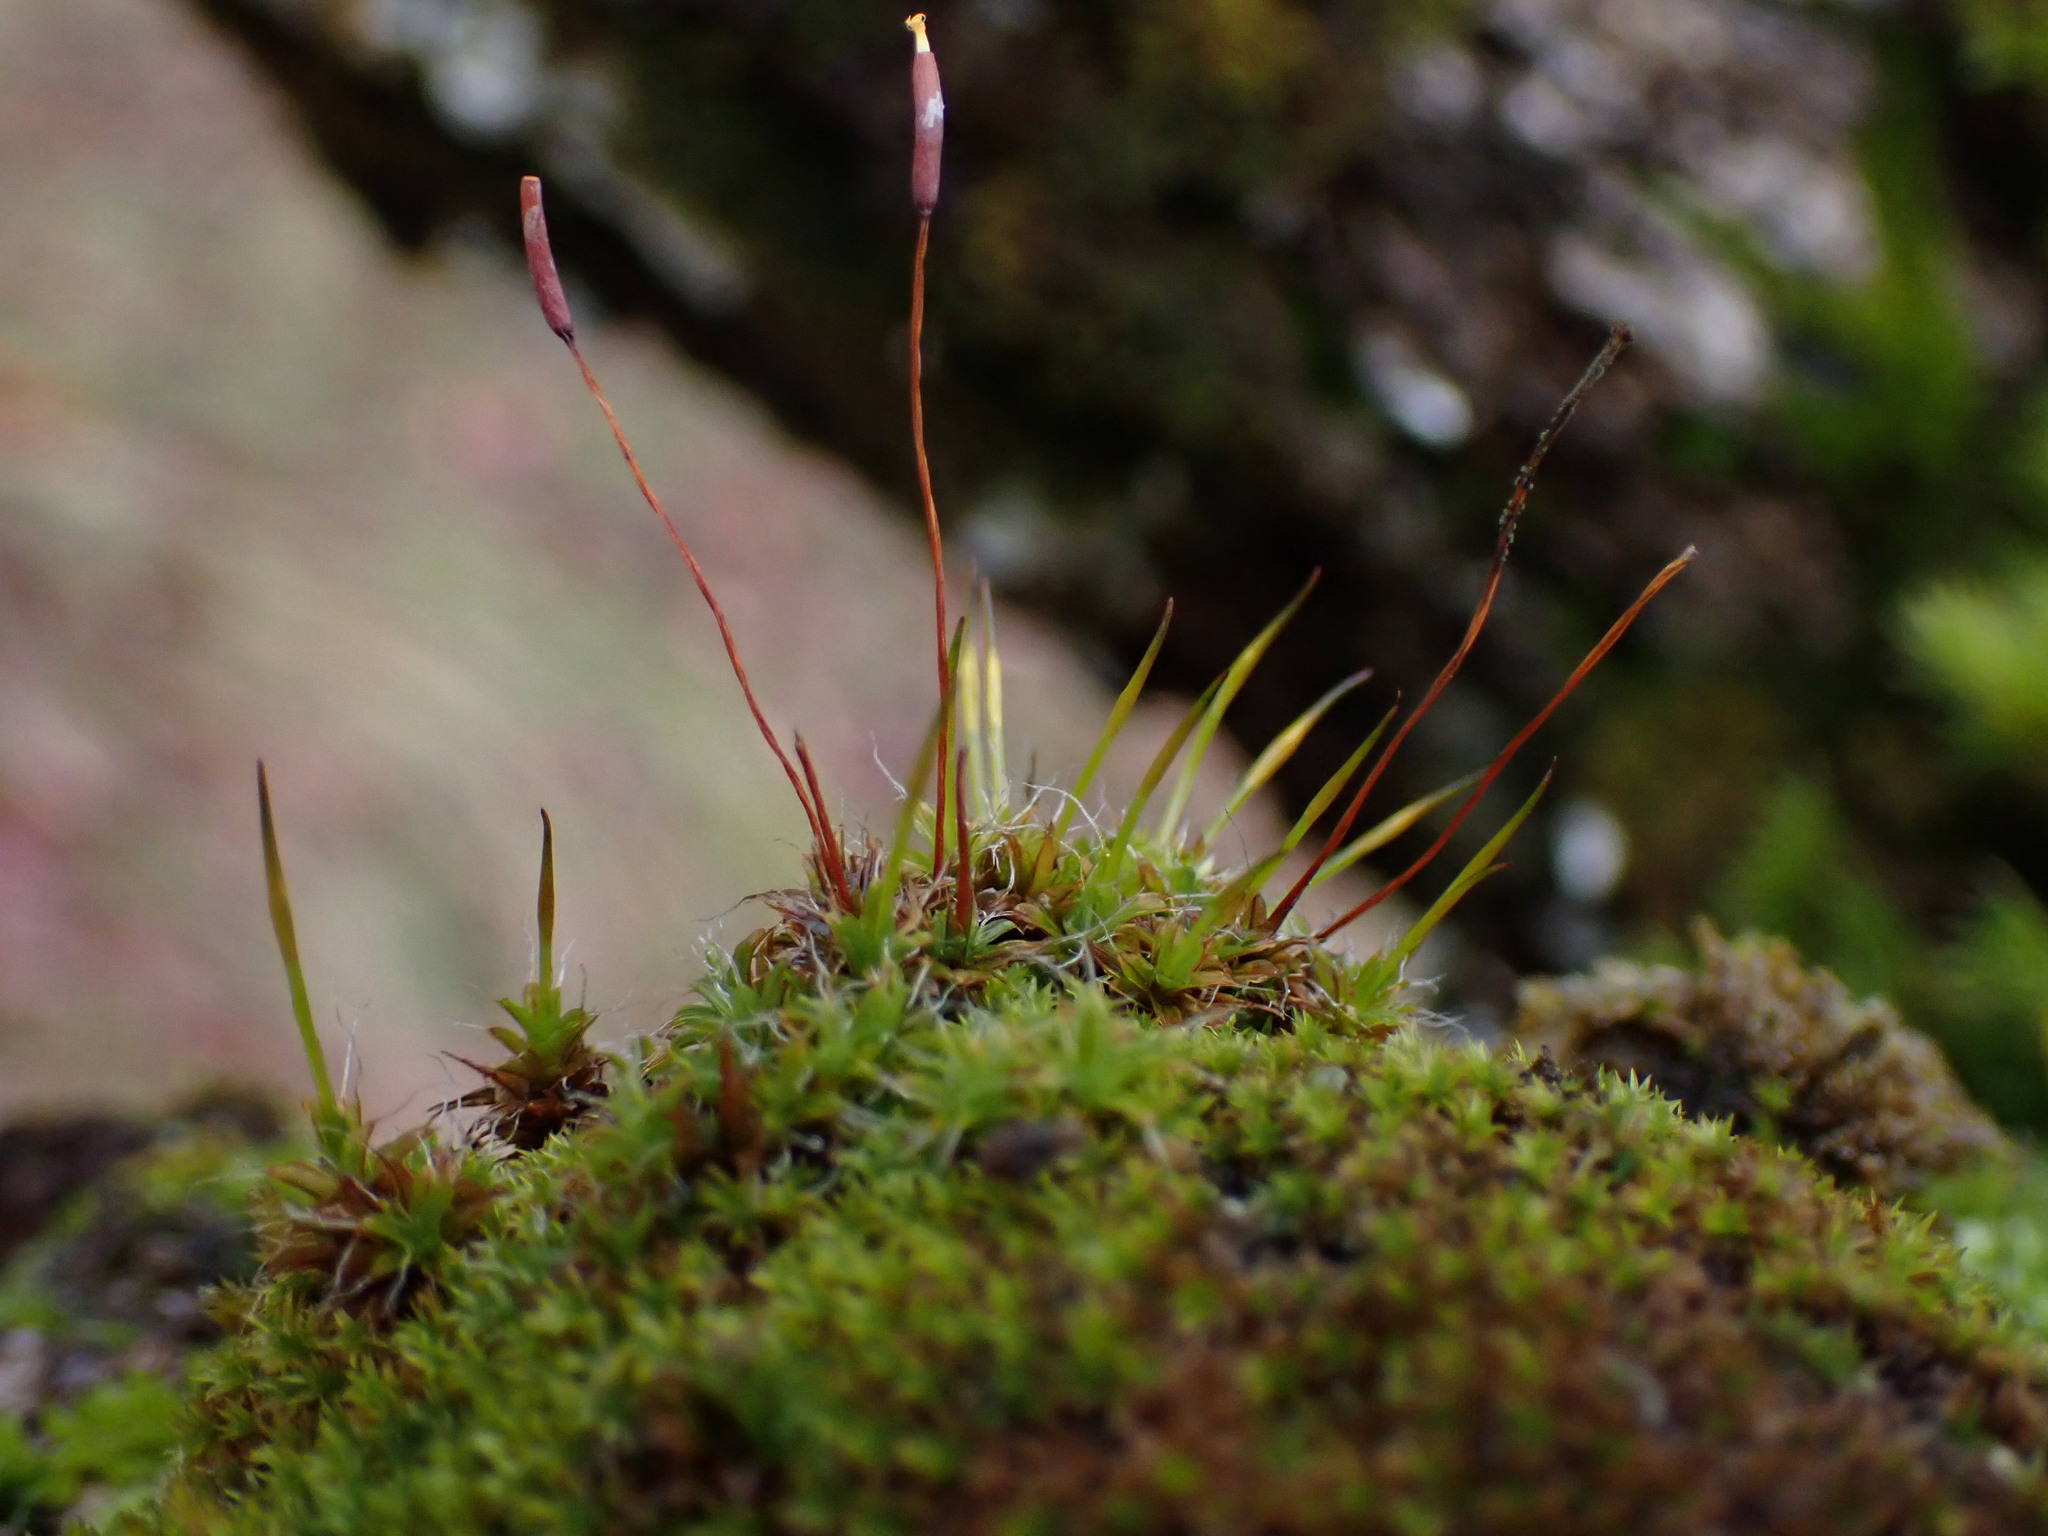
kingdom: Plantae
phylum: Bryophyta
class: Bryopsida
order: Pottiales
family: Pottiaceae
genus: Syntrichia
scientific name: Syntrichia ruralis
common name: Sidewalk screw moss
